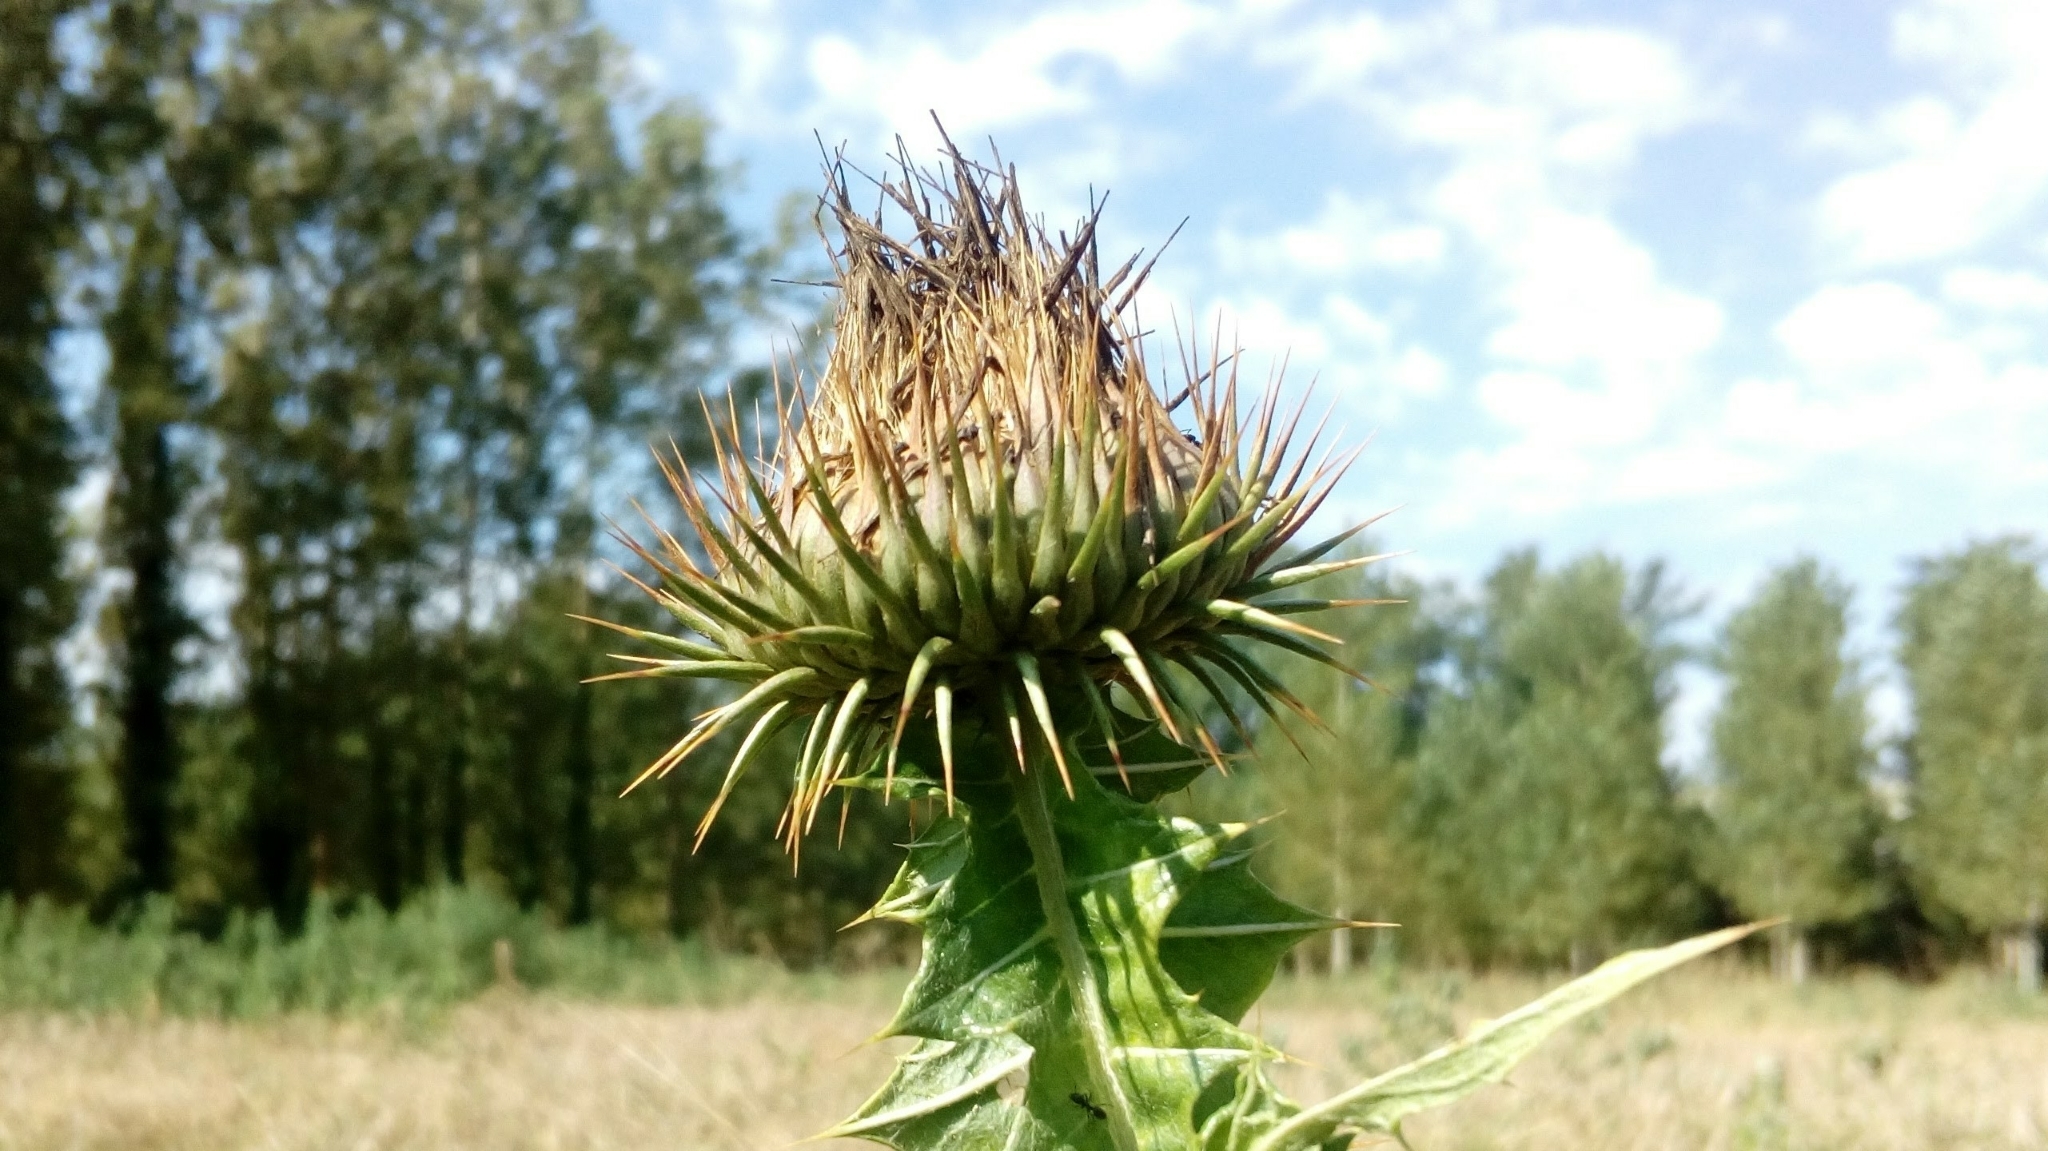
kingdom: Plantae
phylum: Tracheophyta
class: Magnoliopsida
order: Asterales
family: Asteraceae
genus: Onopordum
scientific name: Onopordum acanthium
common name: Scotch thistle
